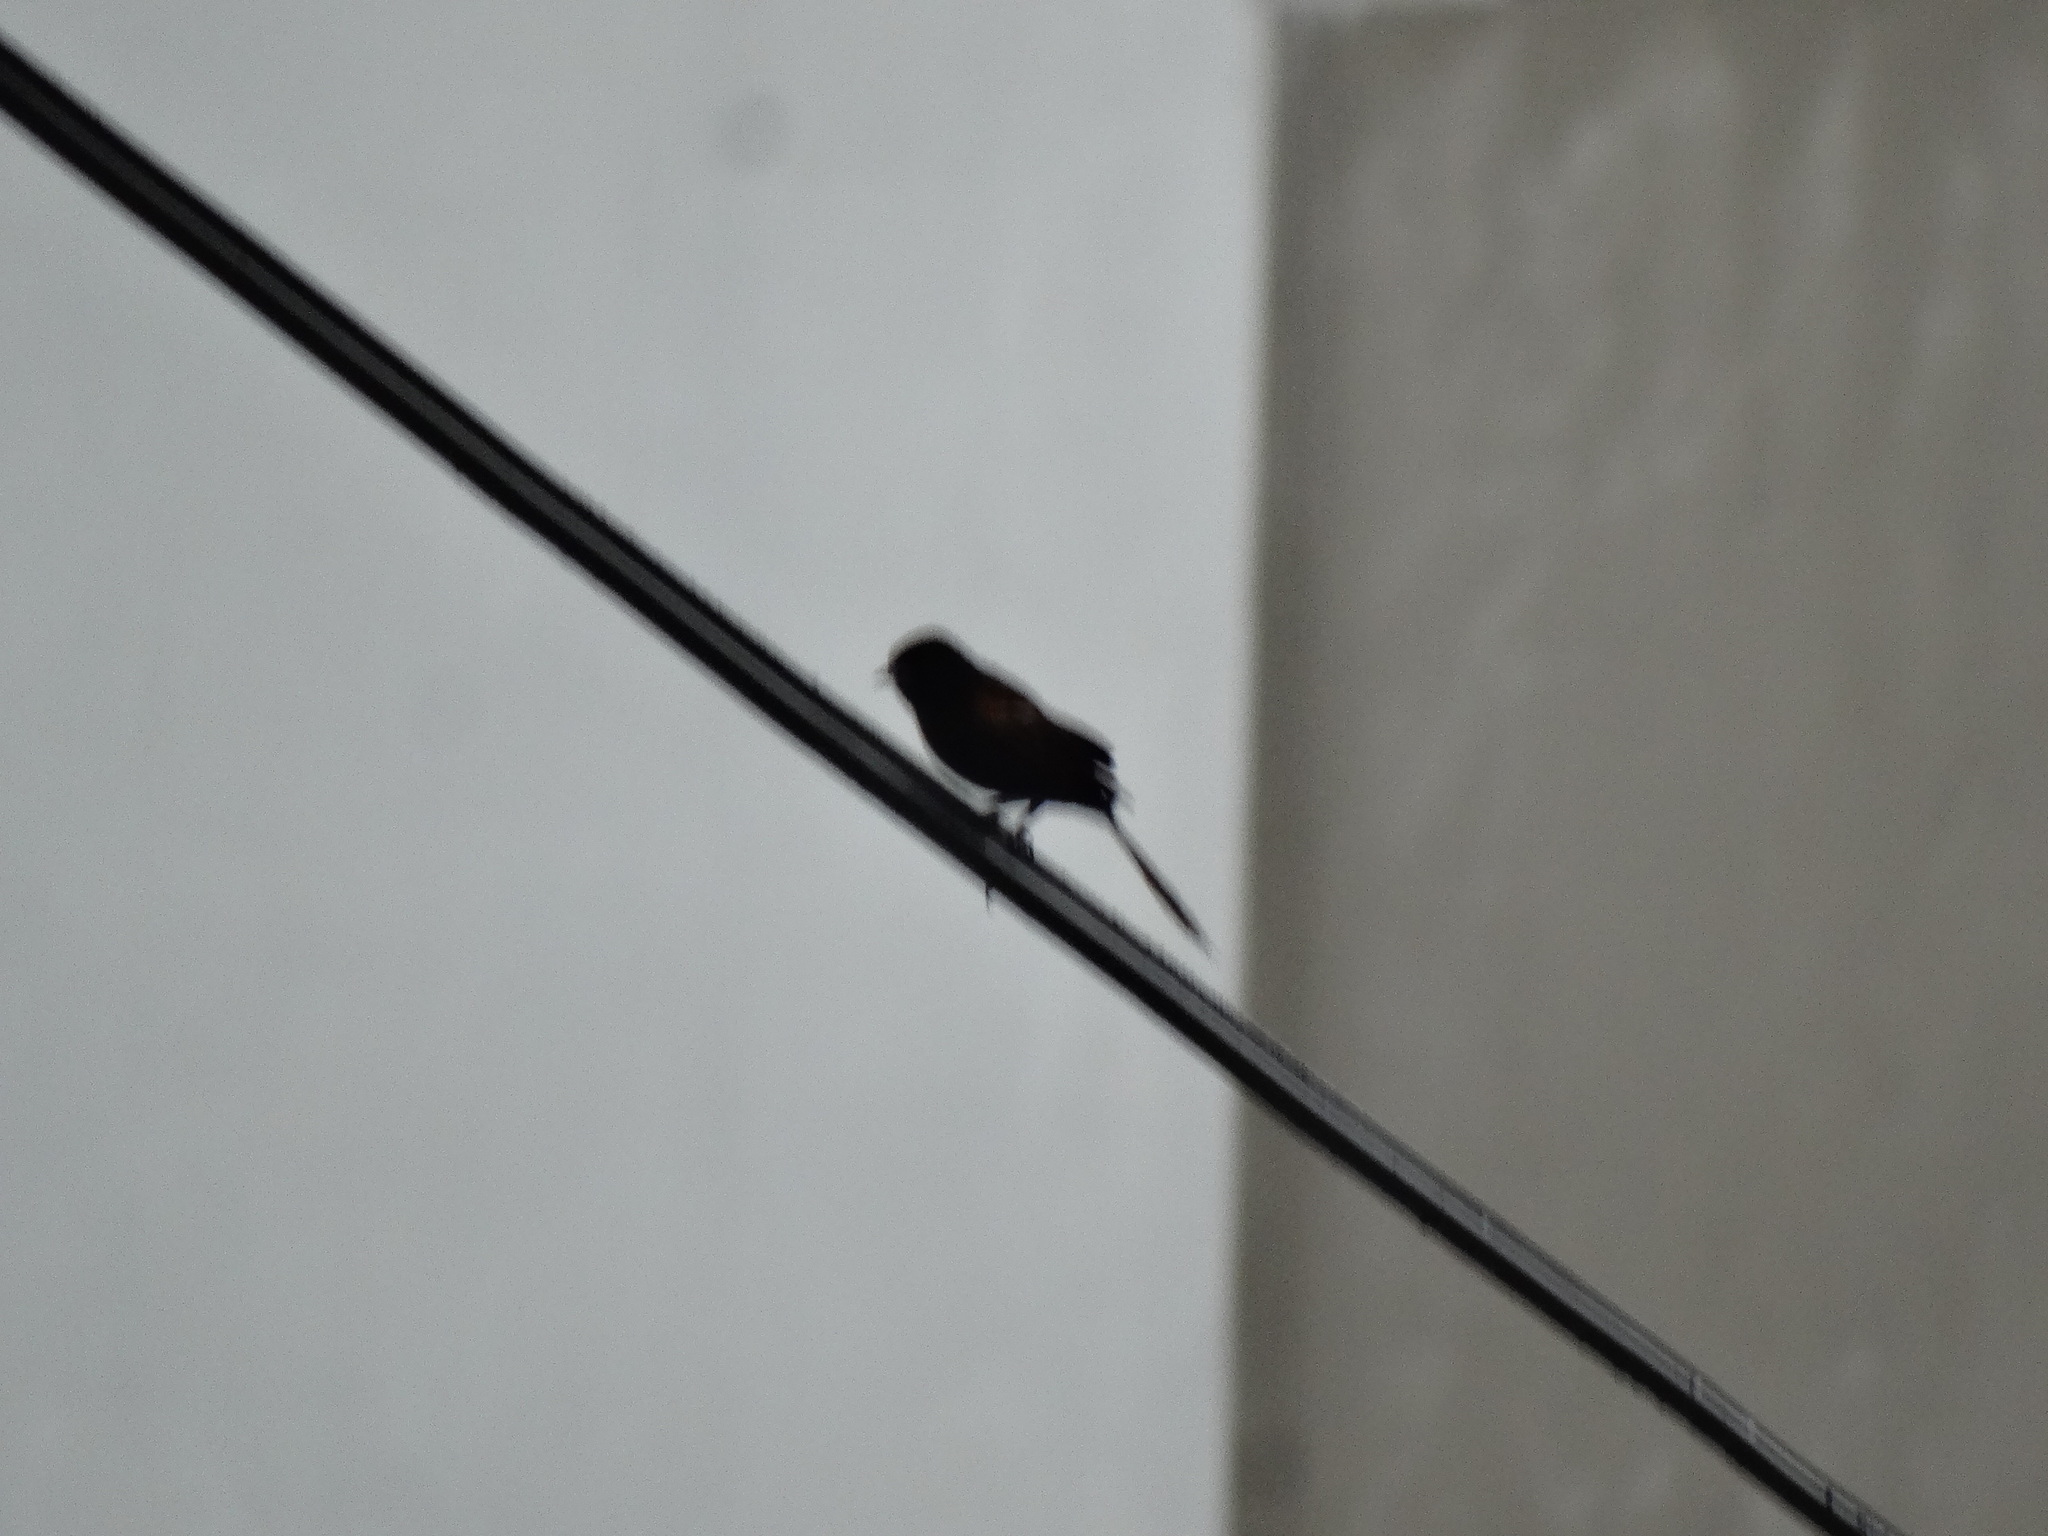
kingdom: Animalia
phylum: Chordata
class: Aves
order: Passeriformes
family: Icteridae
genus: Icterus
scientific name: Icterus cayanensis
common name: Epaulet oriole
